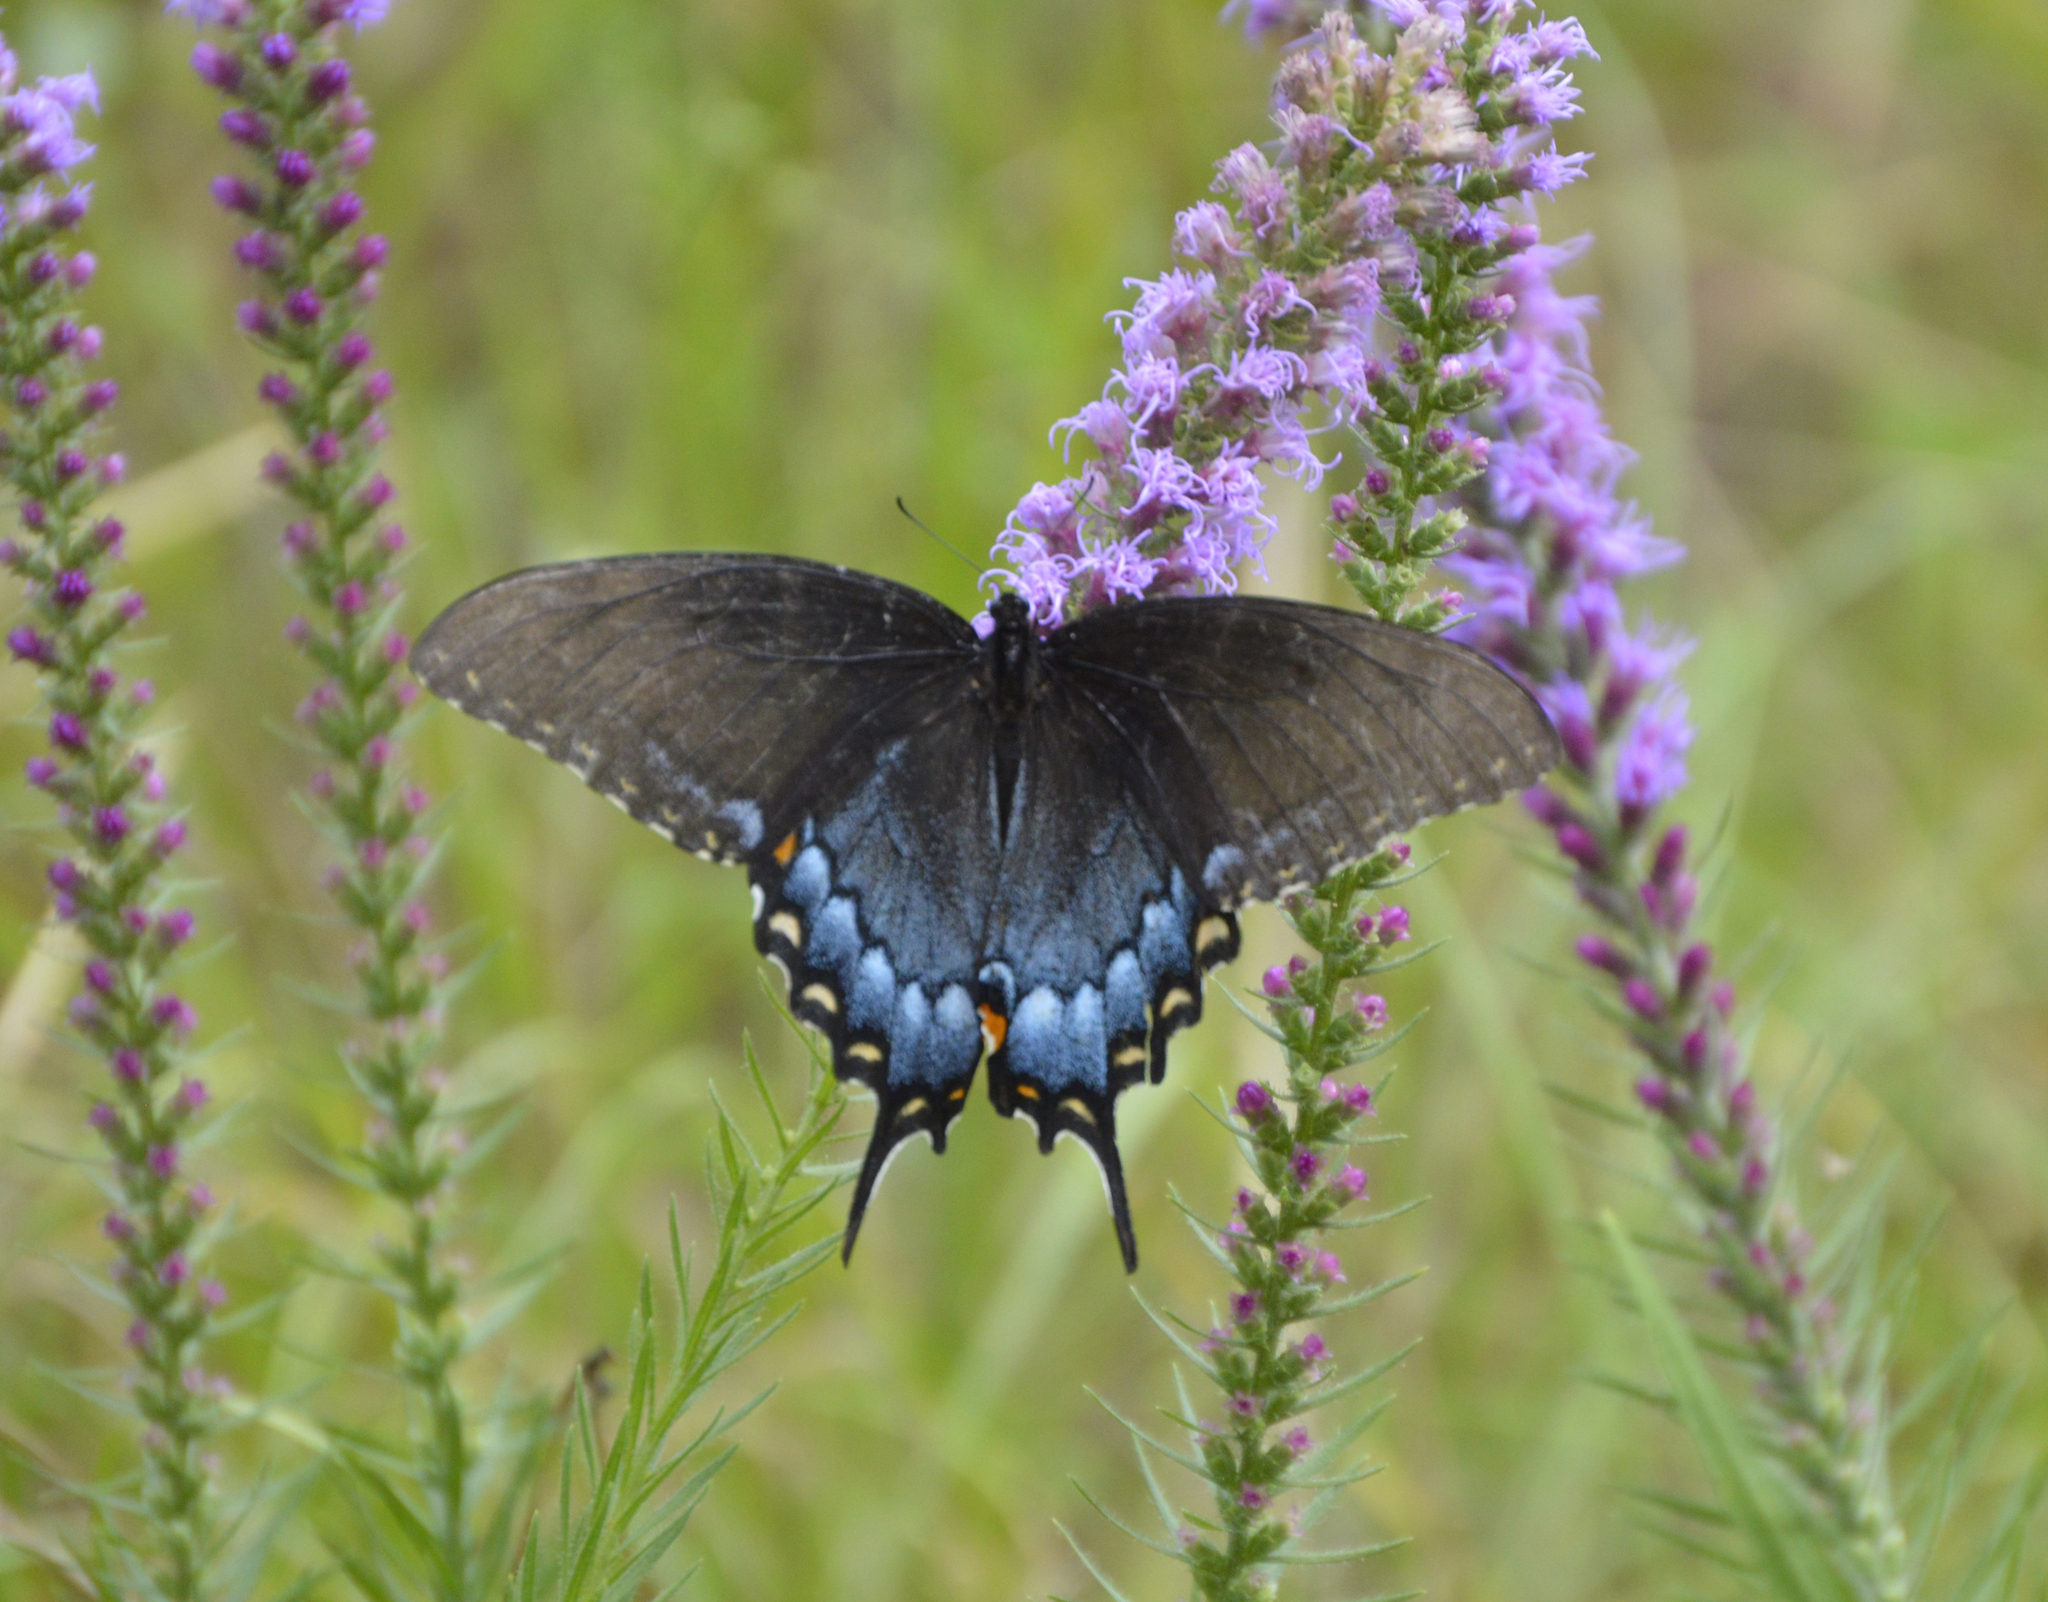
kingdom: Animalia
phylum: Arthropoda
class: Insecta
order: Lepidoptera
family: Papilionidae
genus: Papilio
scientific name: Papilio glaucus
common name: Tiger swallowtail
